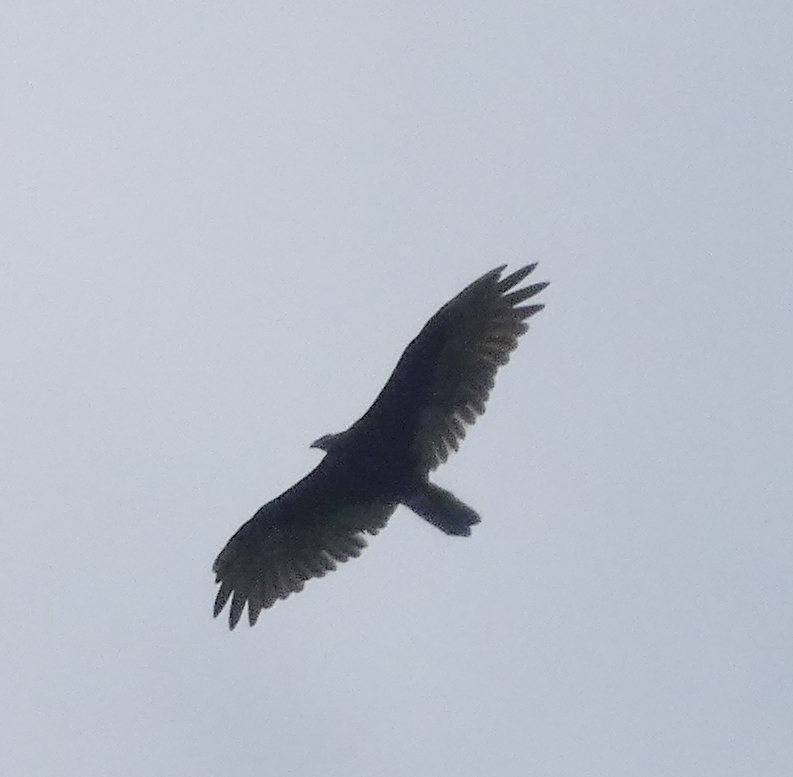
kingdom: Animalia
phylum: Chordata
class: Aves
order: Accipitriformes
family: Cathartidae
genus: Cathartes
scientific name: Cathartes aura
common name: Turkey vulture
